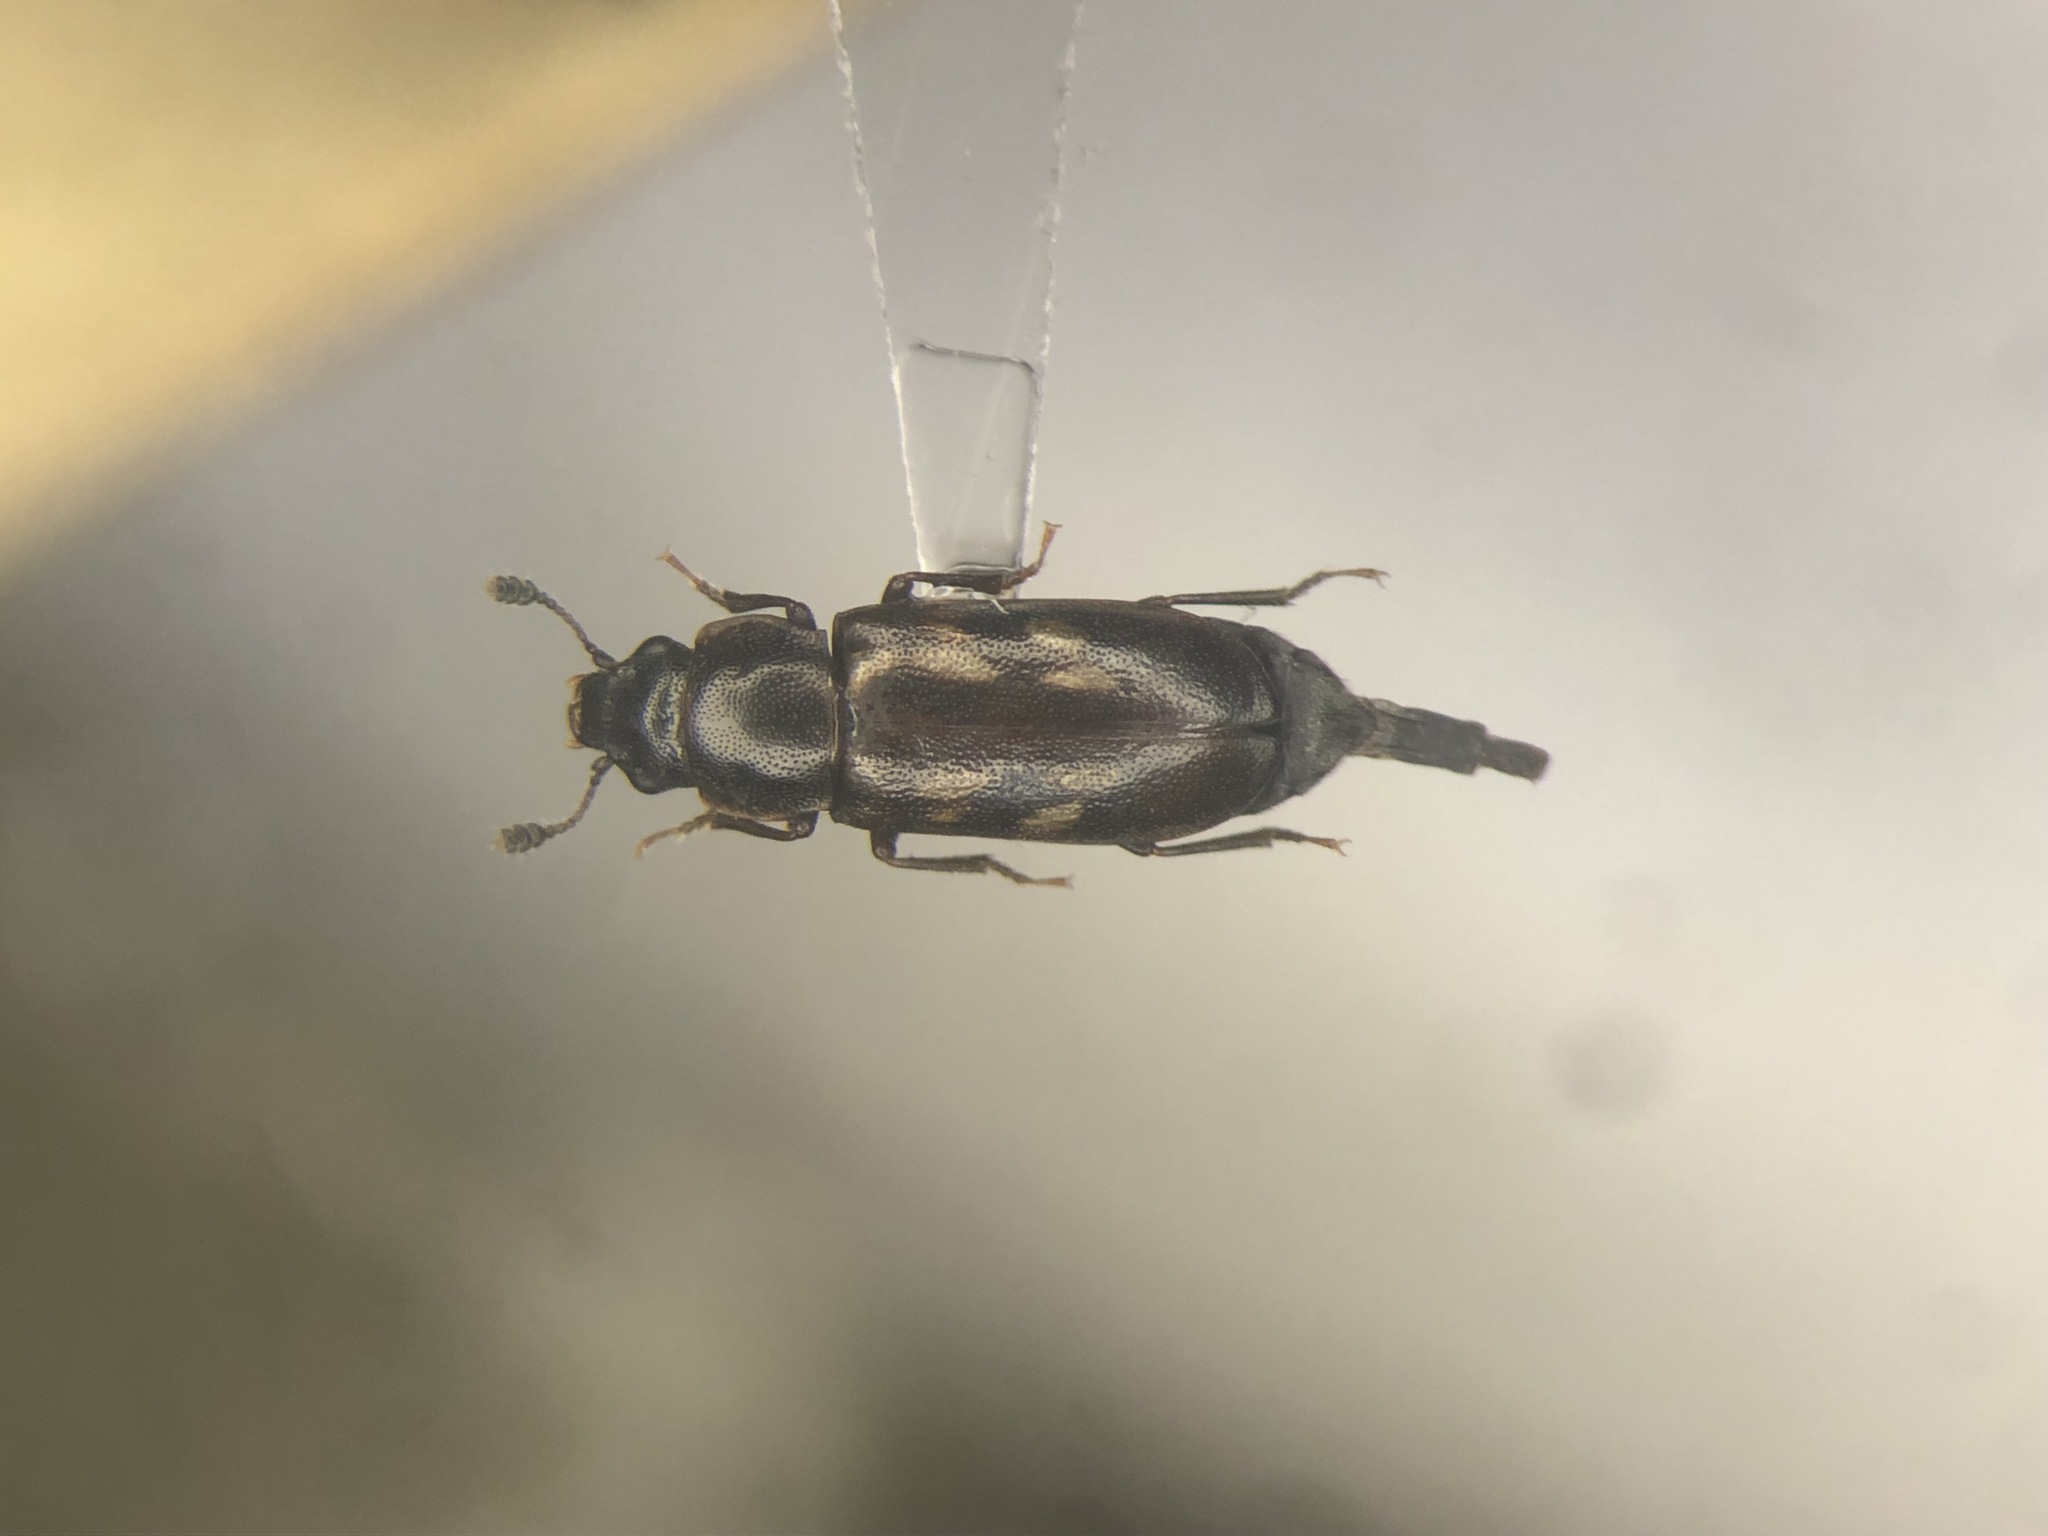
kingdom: Animalia
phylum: Arthropoda
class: Insecta
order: Coleoptera
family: Nitidulidae
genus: Glischrochilus
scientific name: Glischrochilus vittatus
